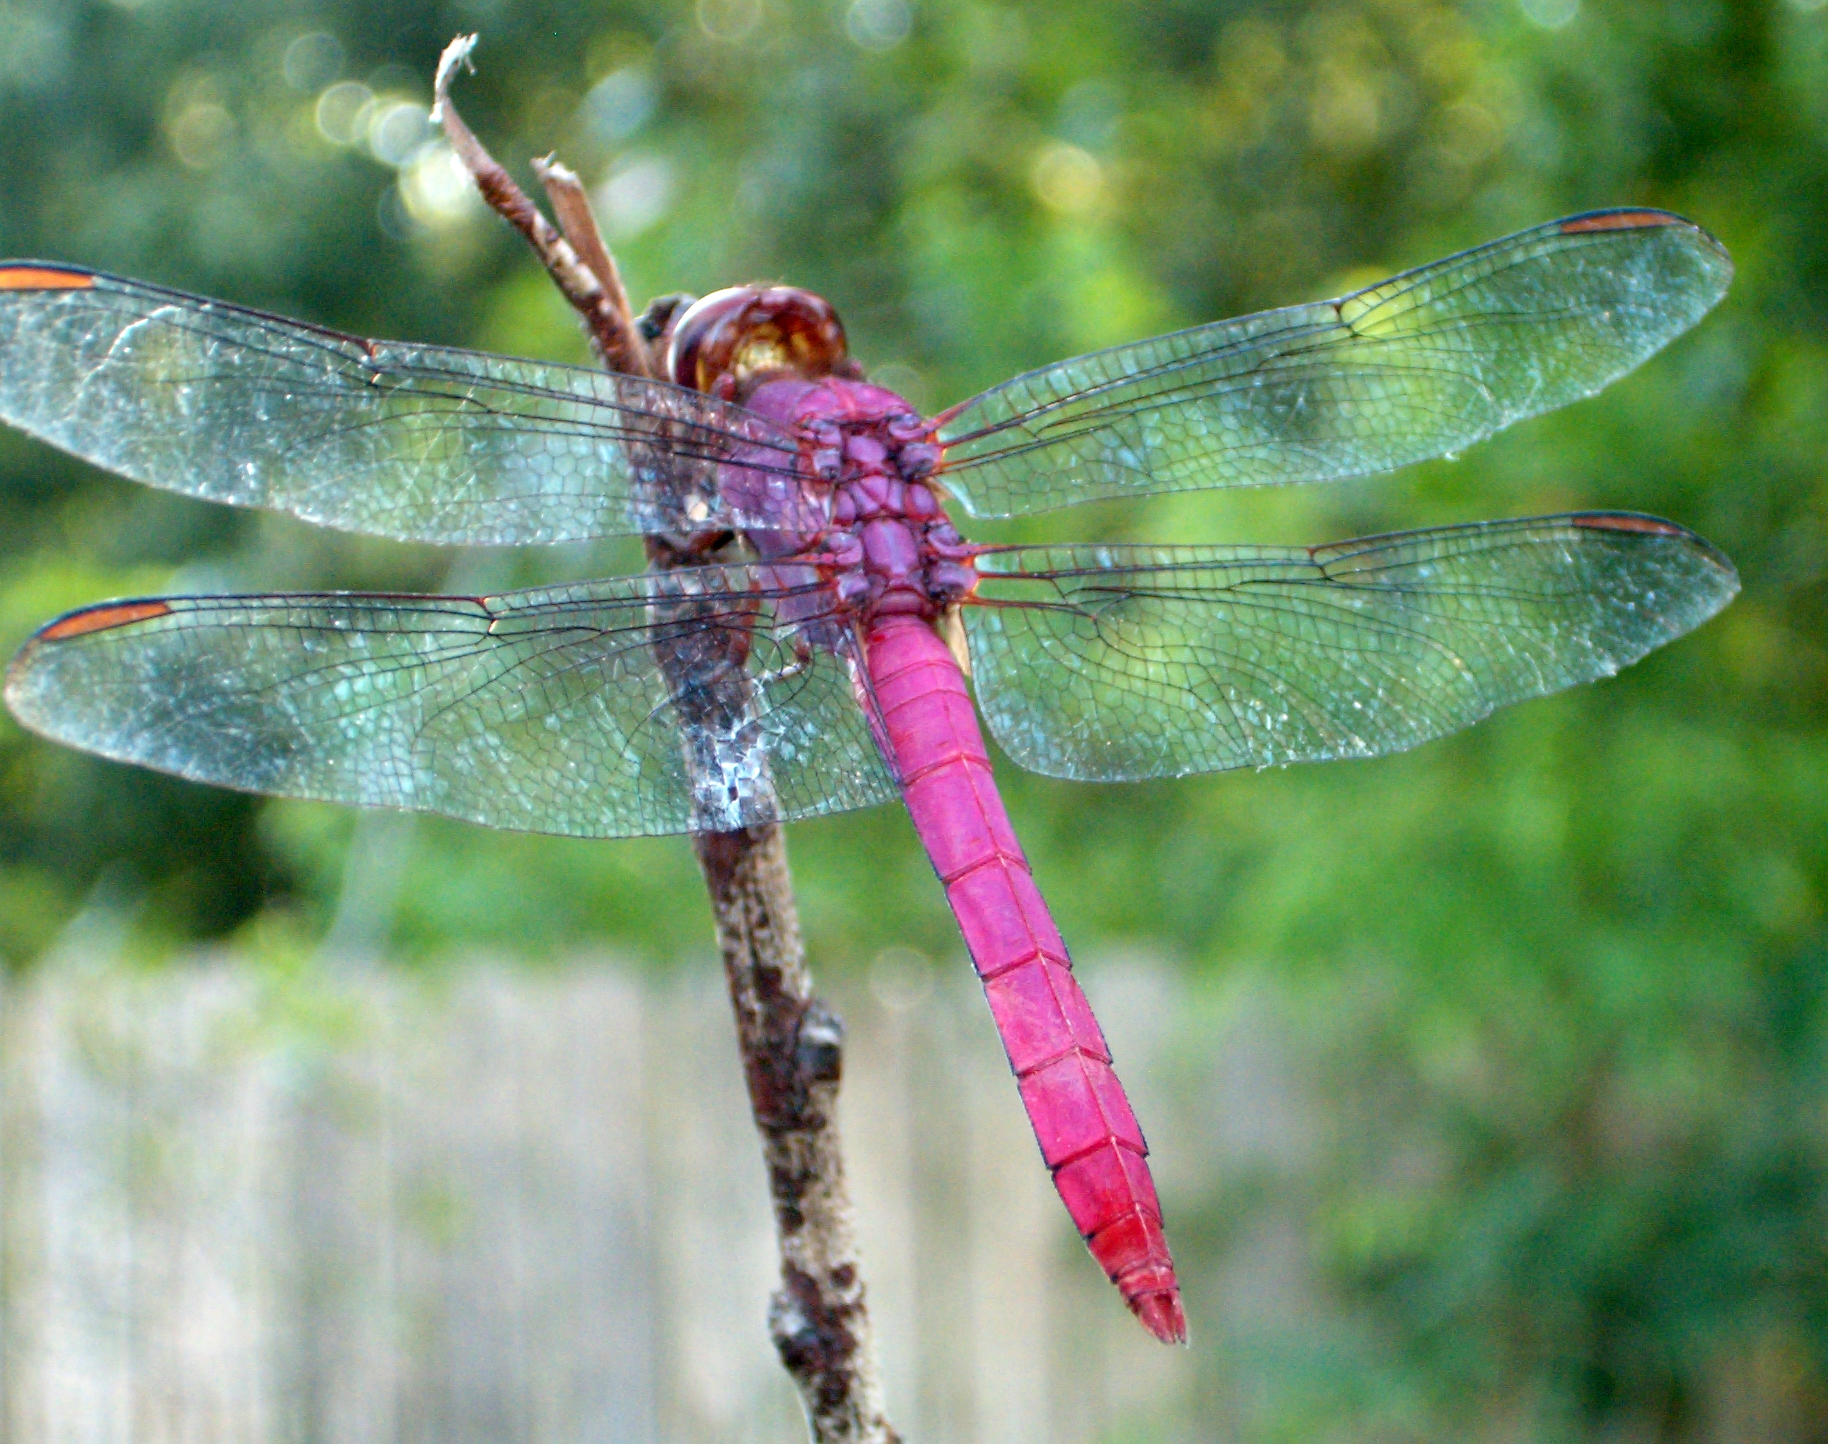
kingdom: Animalia
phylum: Arthropoda
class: Insecta
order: Odonata
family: Libellulidae
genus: Orthemis
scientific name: Orthemis ferruginea
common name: Roseate skimmer
